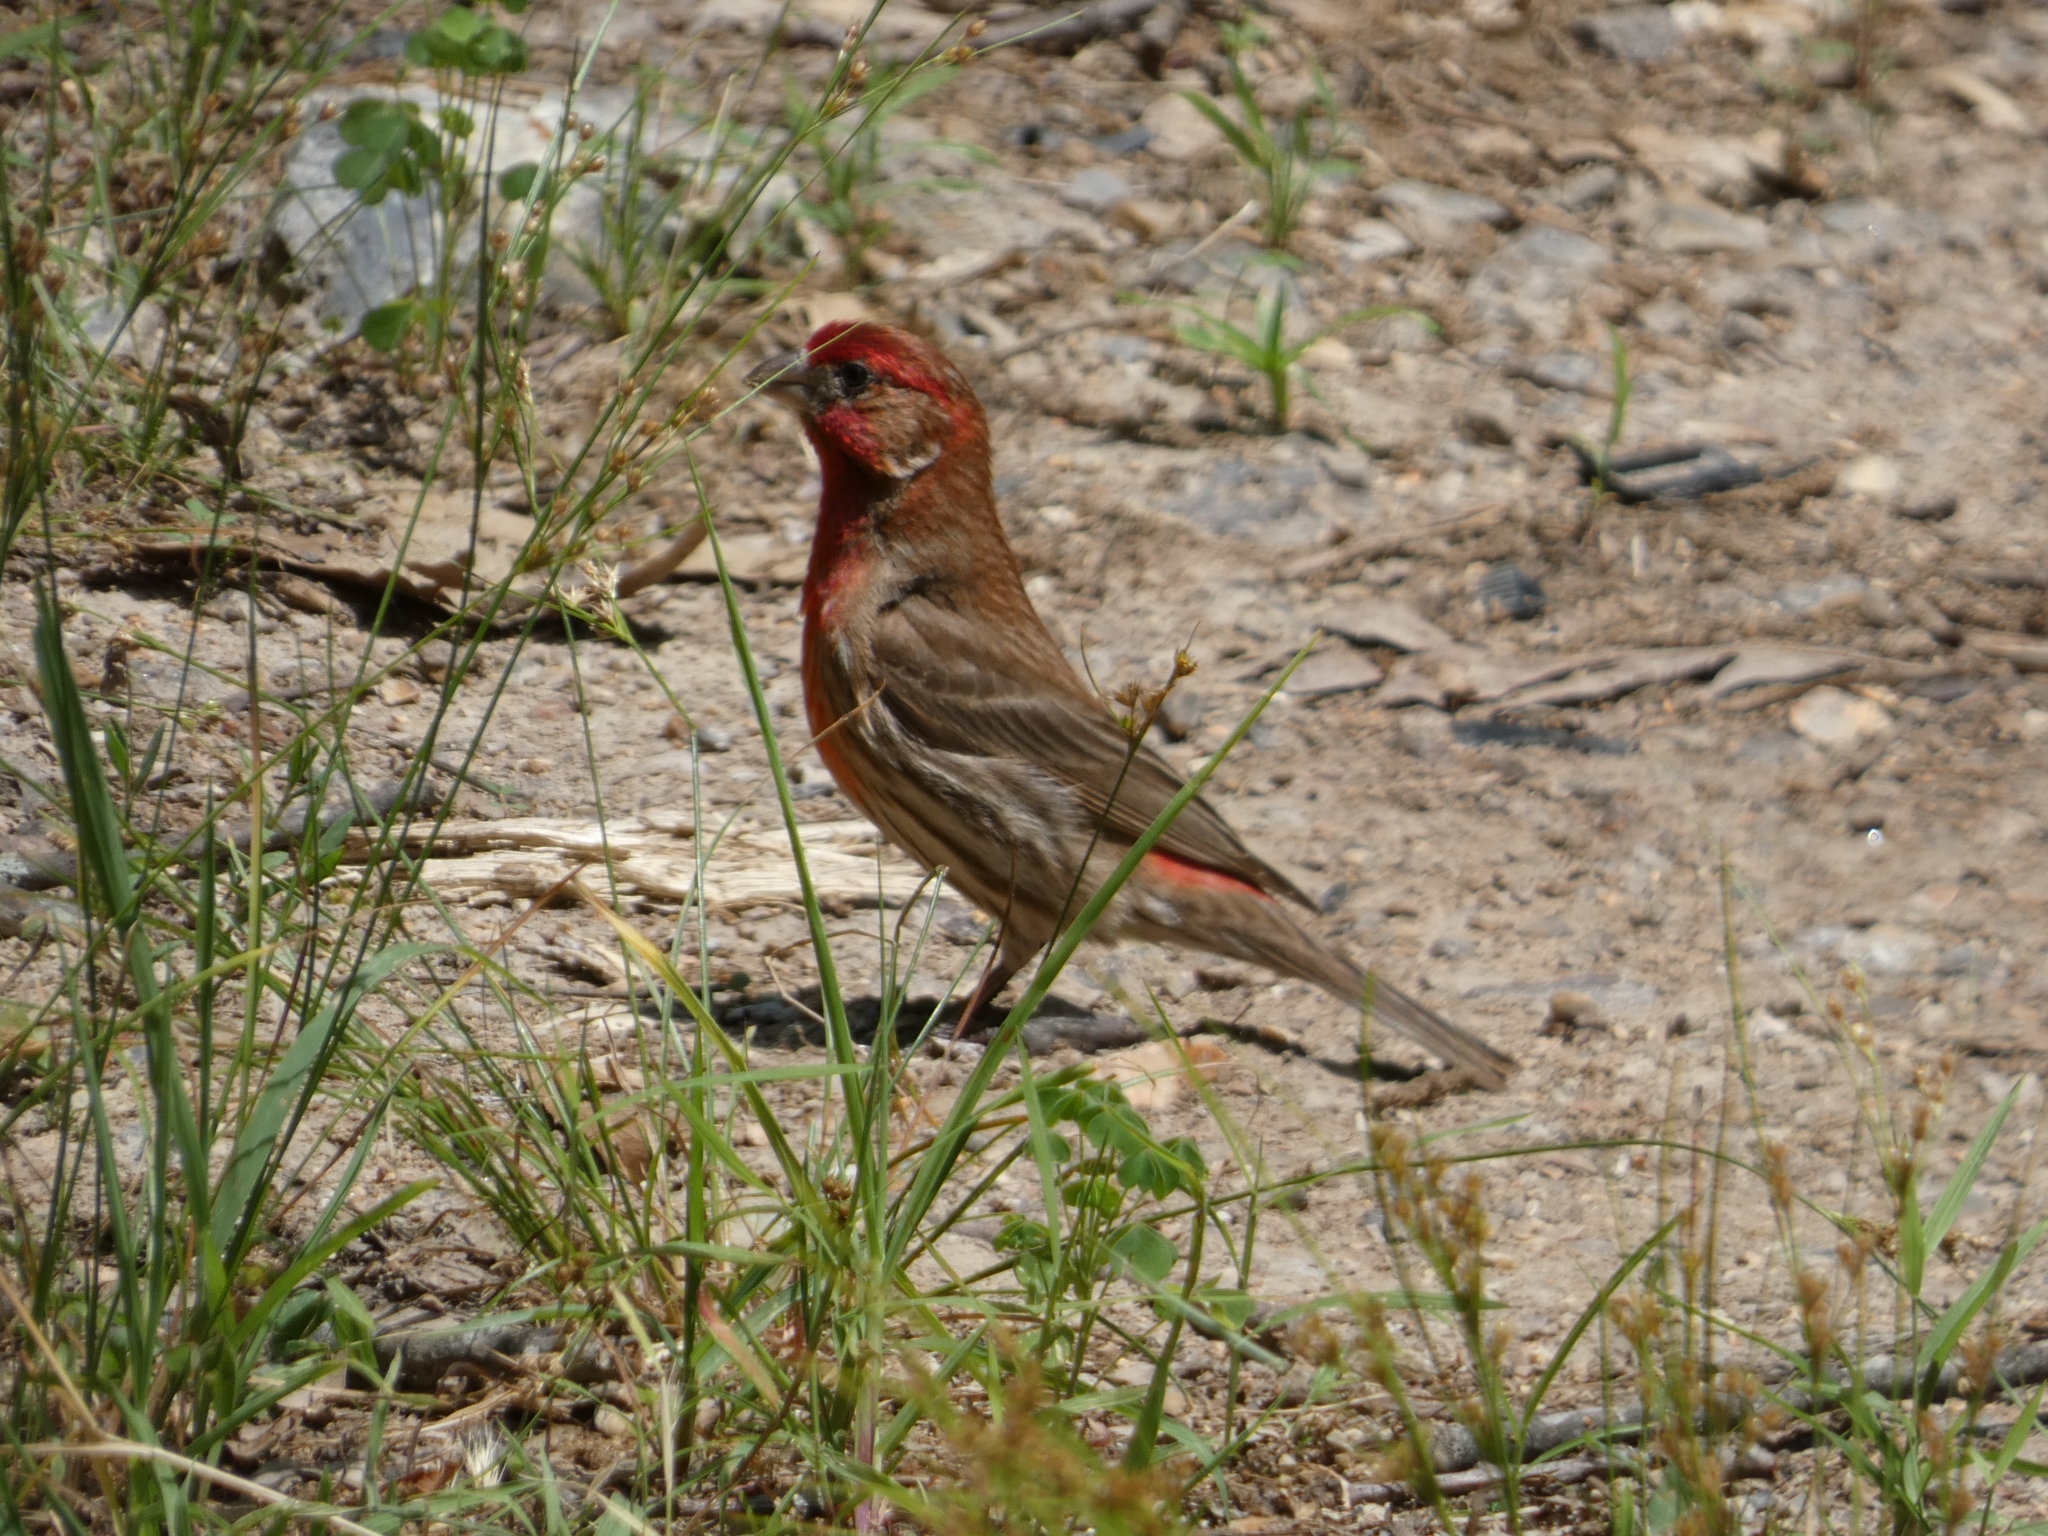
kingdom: Animalia
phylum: Chordata
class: Aves
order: Passeriformes
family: Fringillidae
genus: Haemorhous
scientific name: Haemorhous mexicanus
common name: House finch
